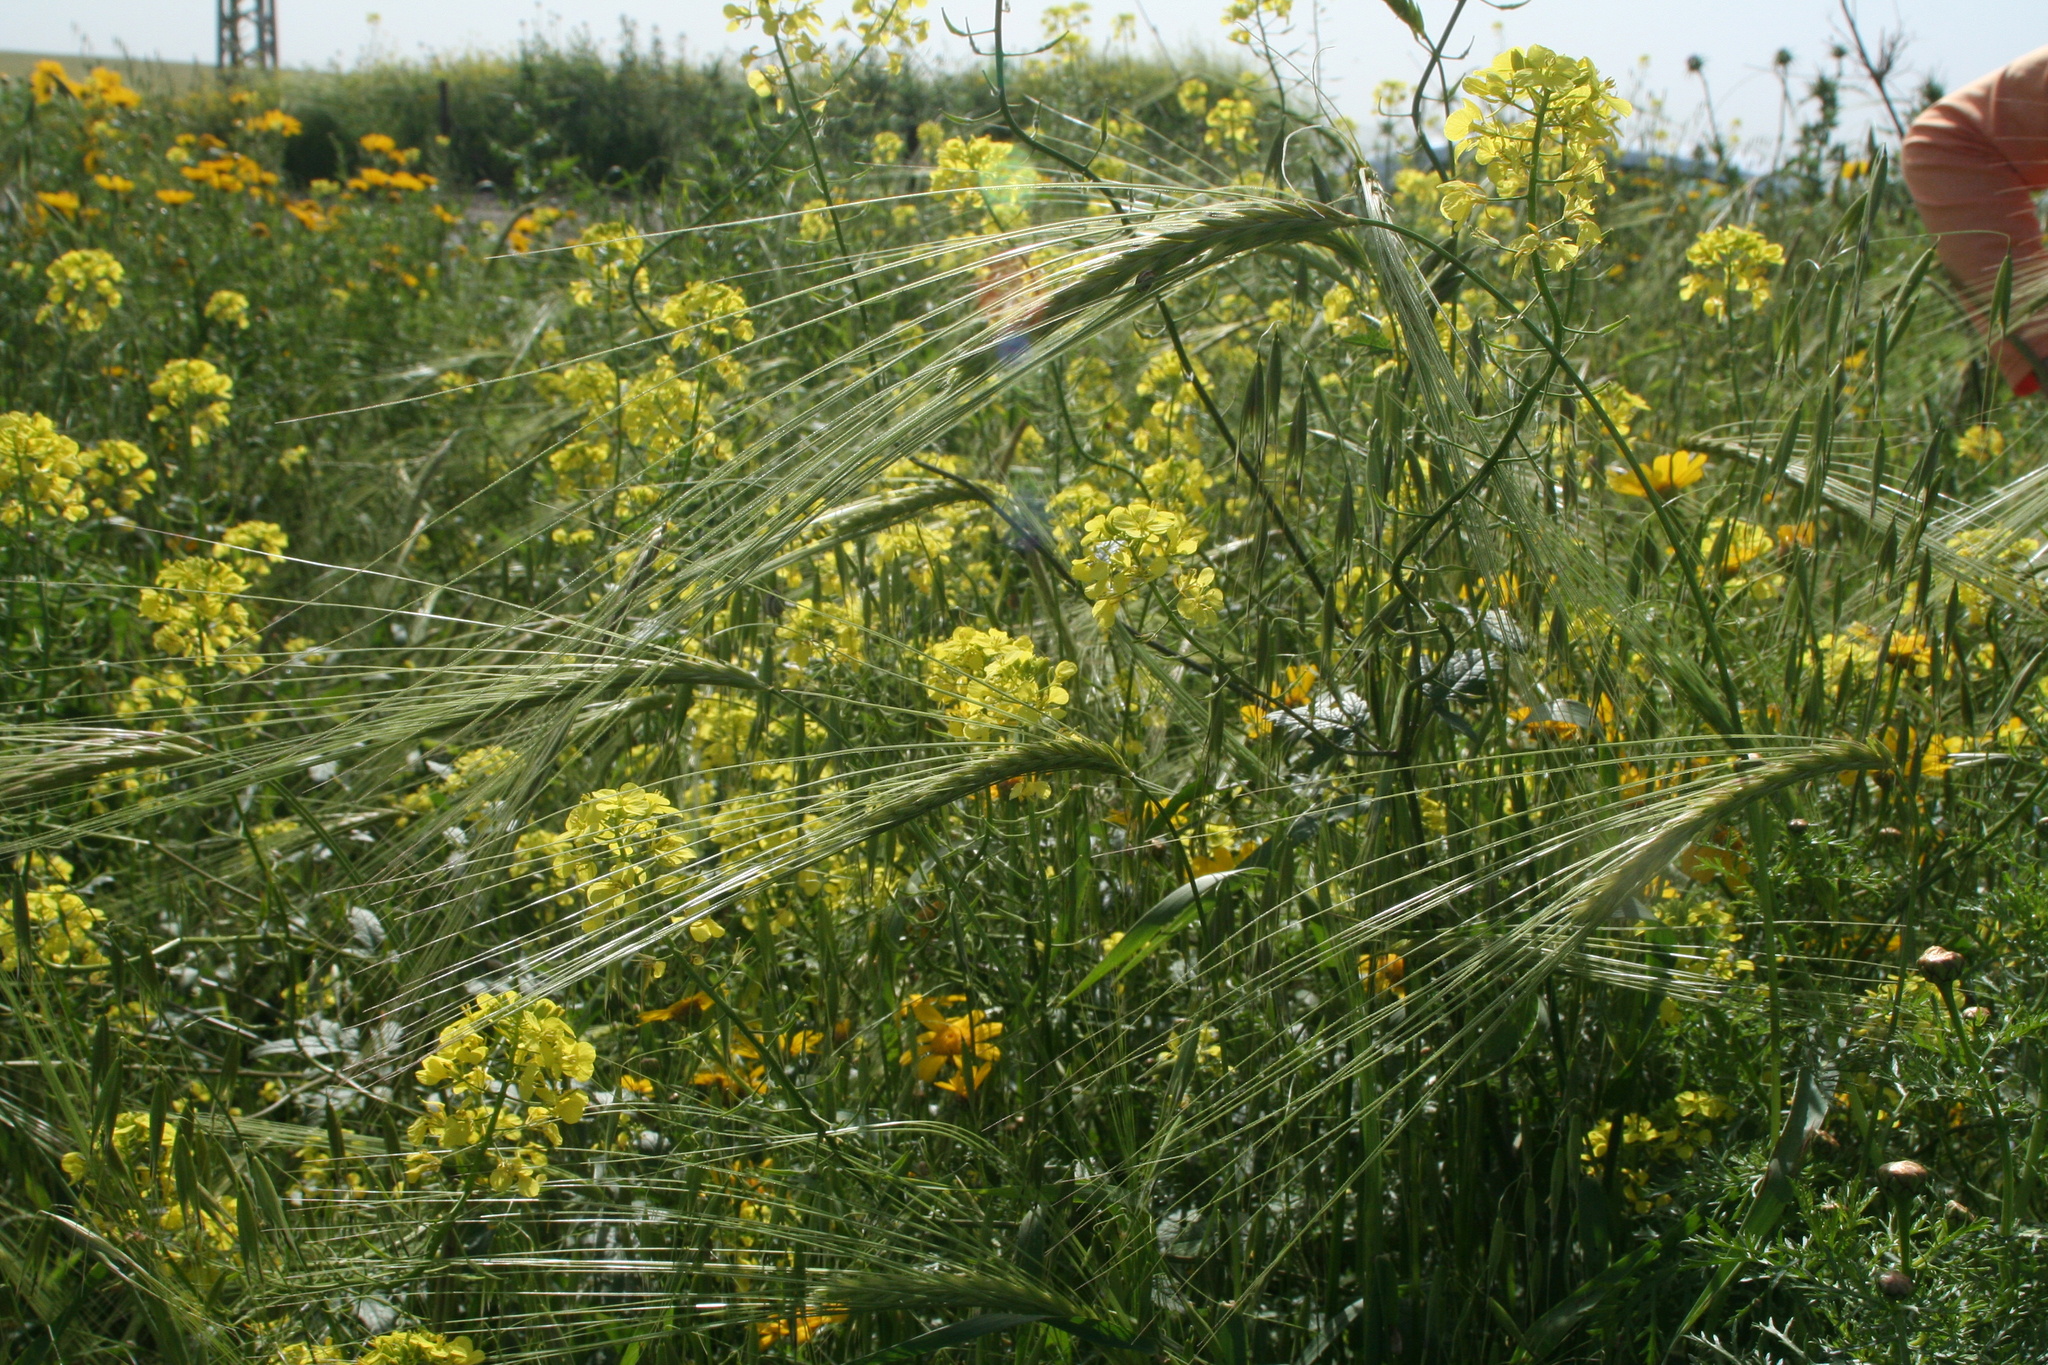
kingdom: Plantae
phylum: Tracheophyta
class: Liliopsida
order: Poales
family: Poaceae
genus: Hordeum
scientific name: Hordeum spontaneum
